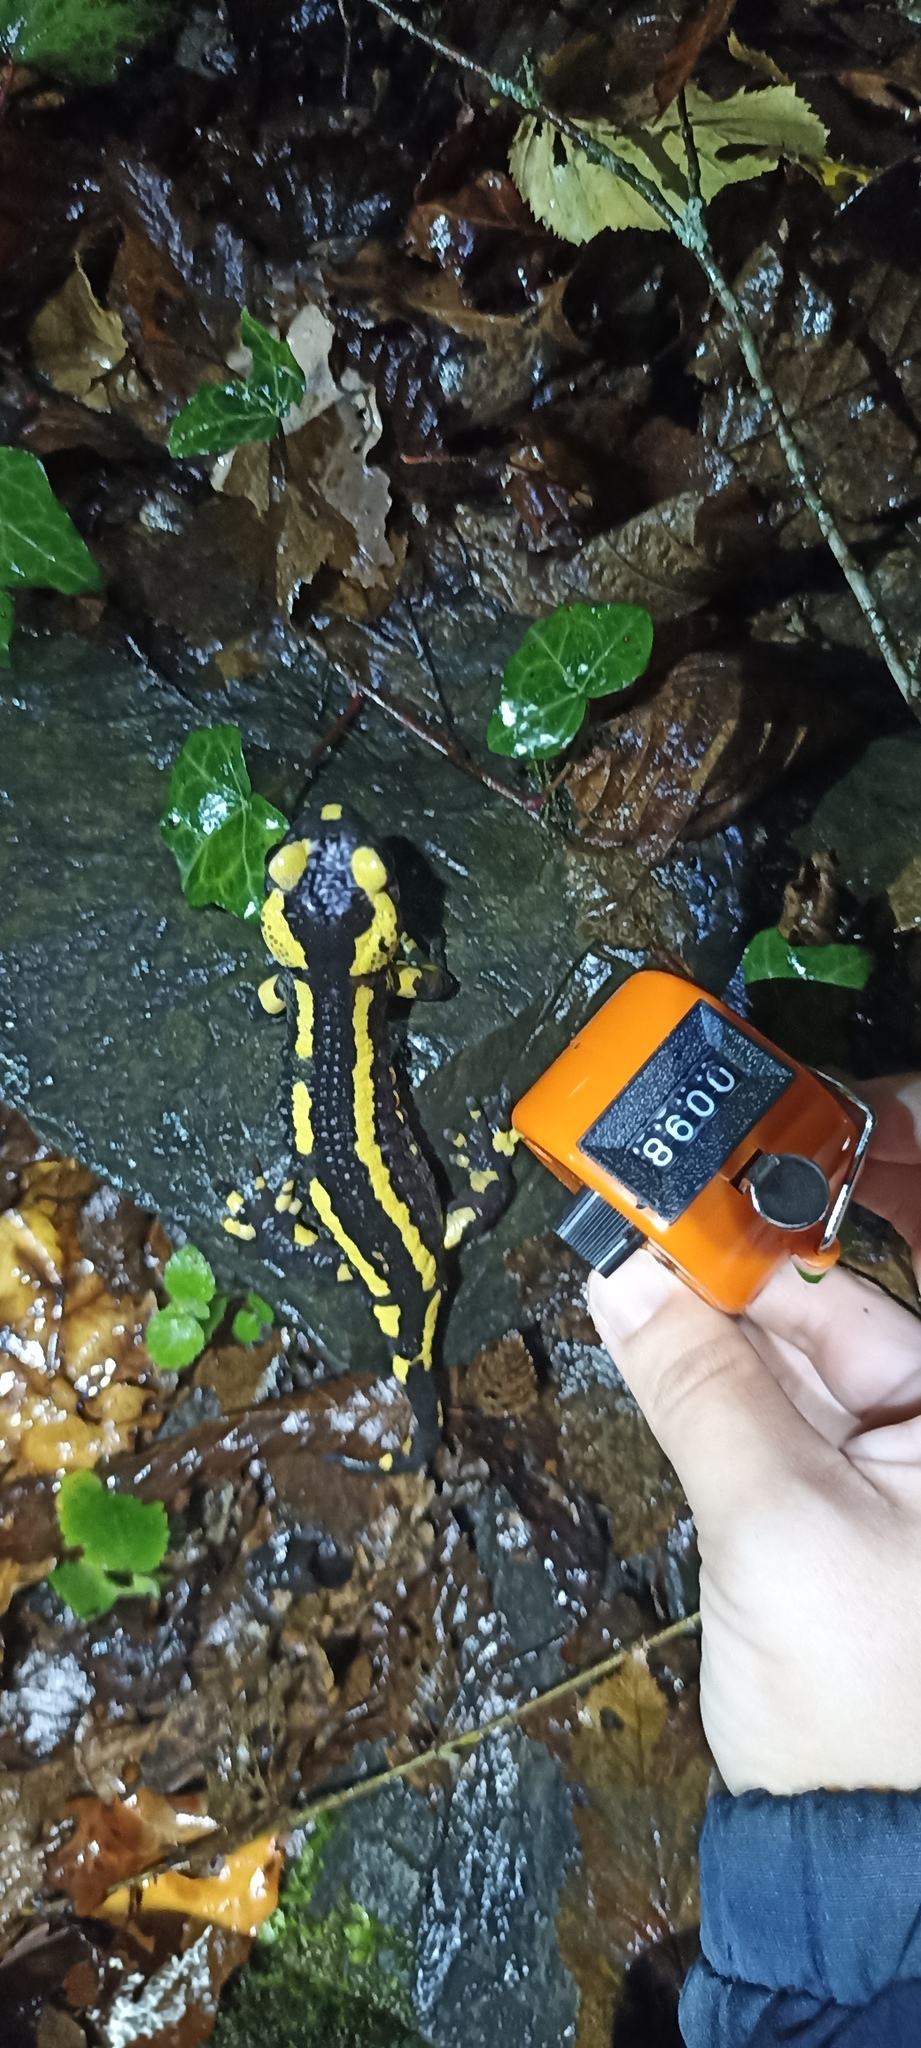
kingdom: Animalia
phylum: Chordata
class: Amphibia
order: Caudata
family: Salamandridae
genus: Salamandra
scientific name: Salamandra salamandra
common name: Fire salamander
